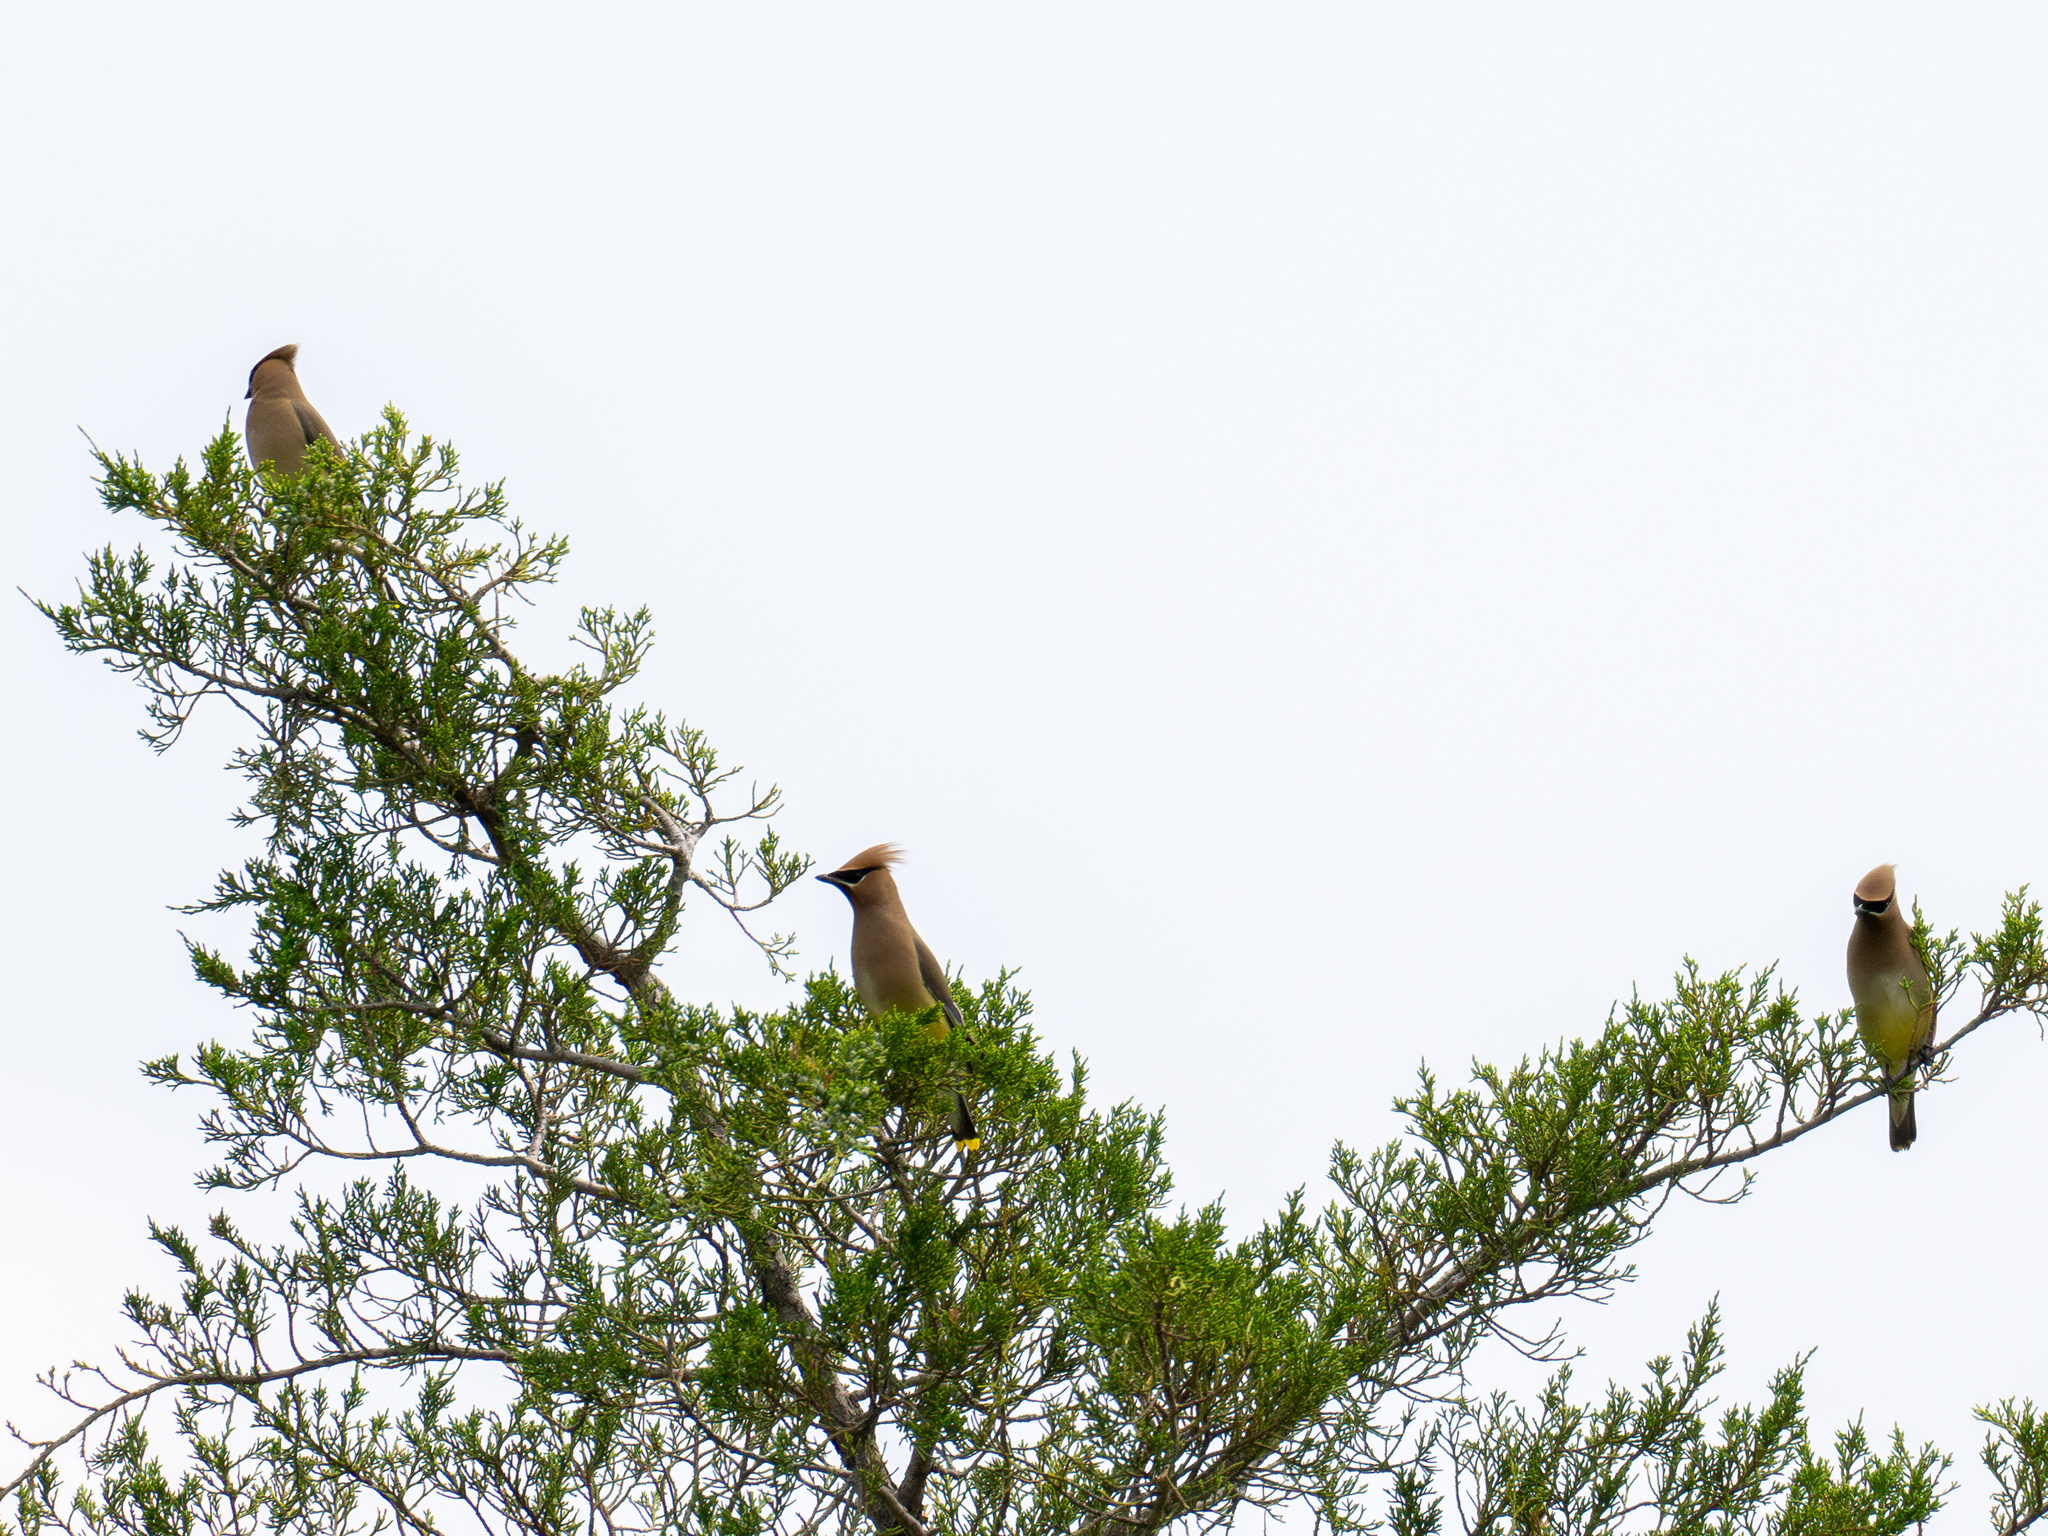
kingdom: Animalia
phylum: Chordata
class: Aves
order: Passeriformes
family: Bombycillidae
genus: Bombycilla
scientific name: Bombycilla cedrorum
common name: Cedar waxwing
